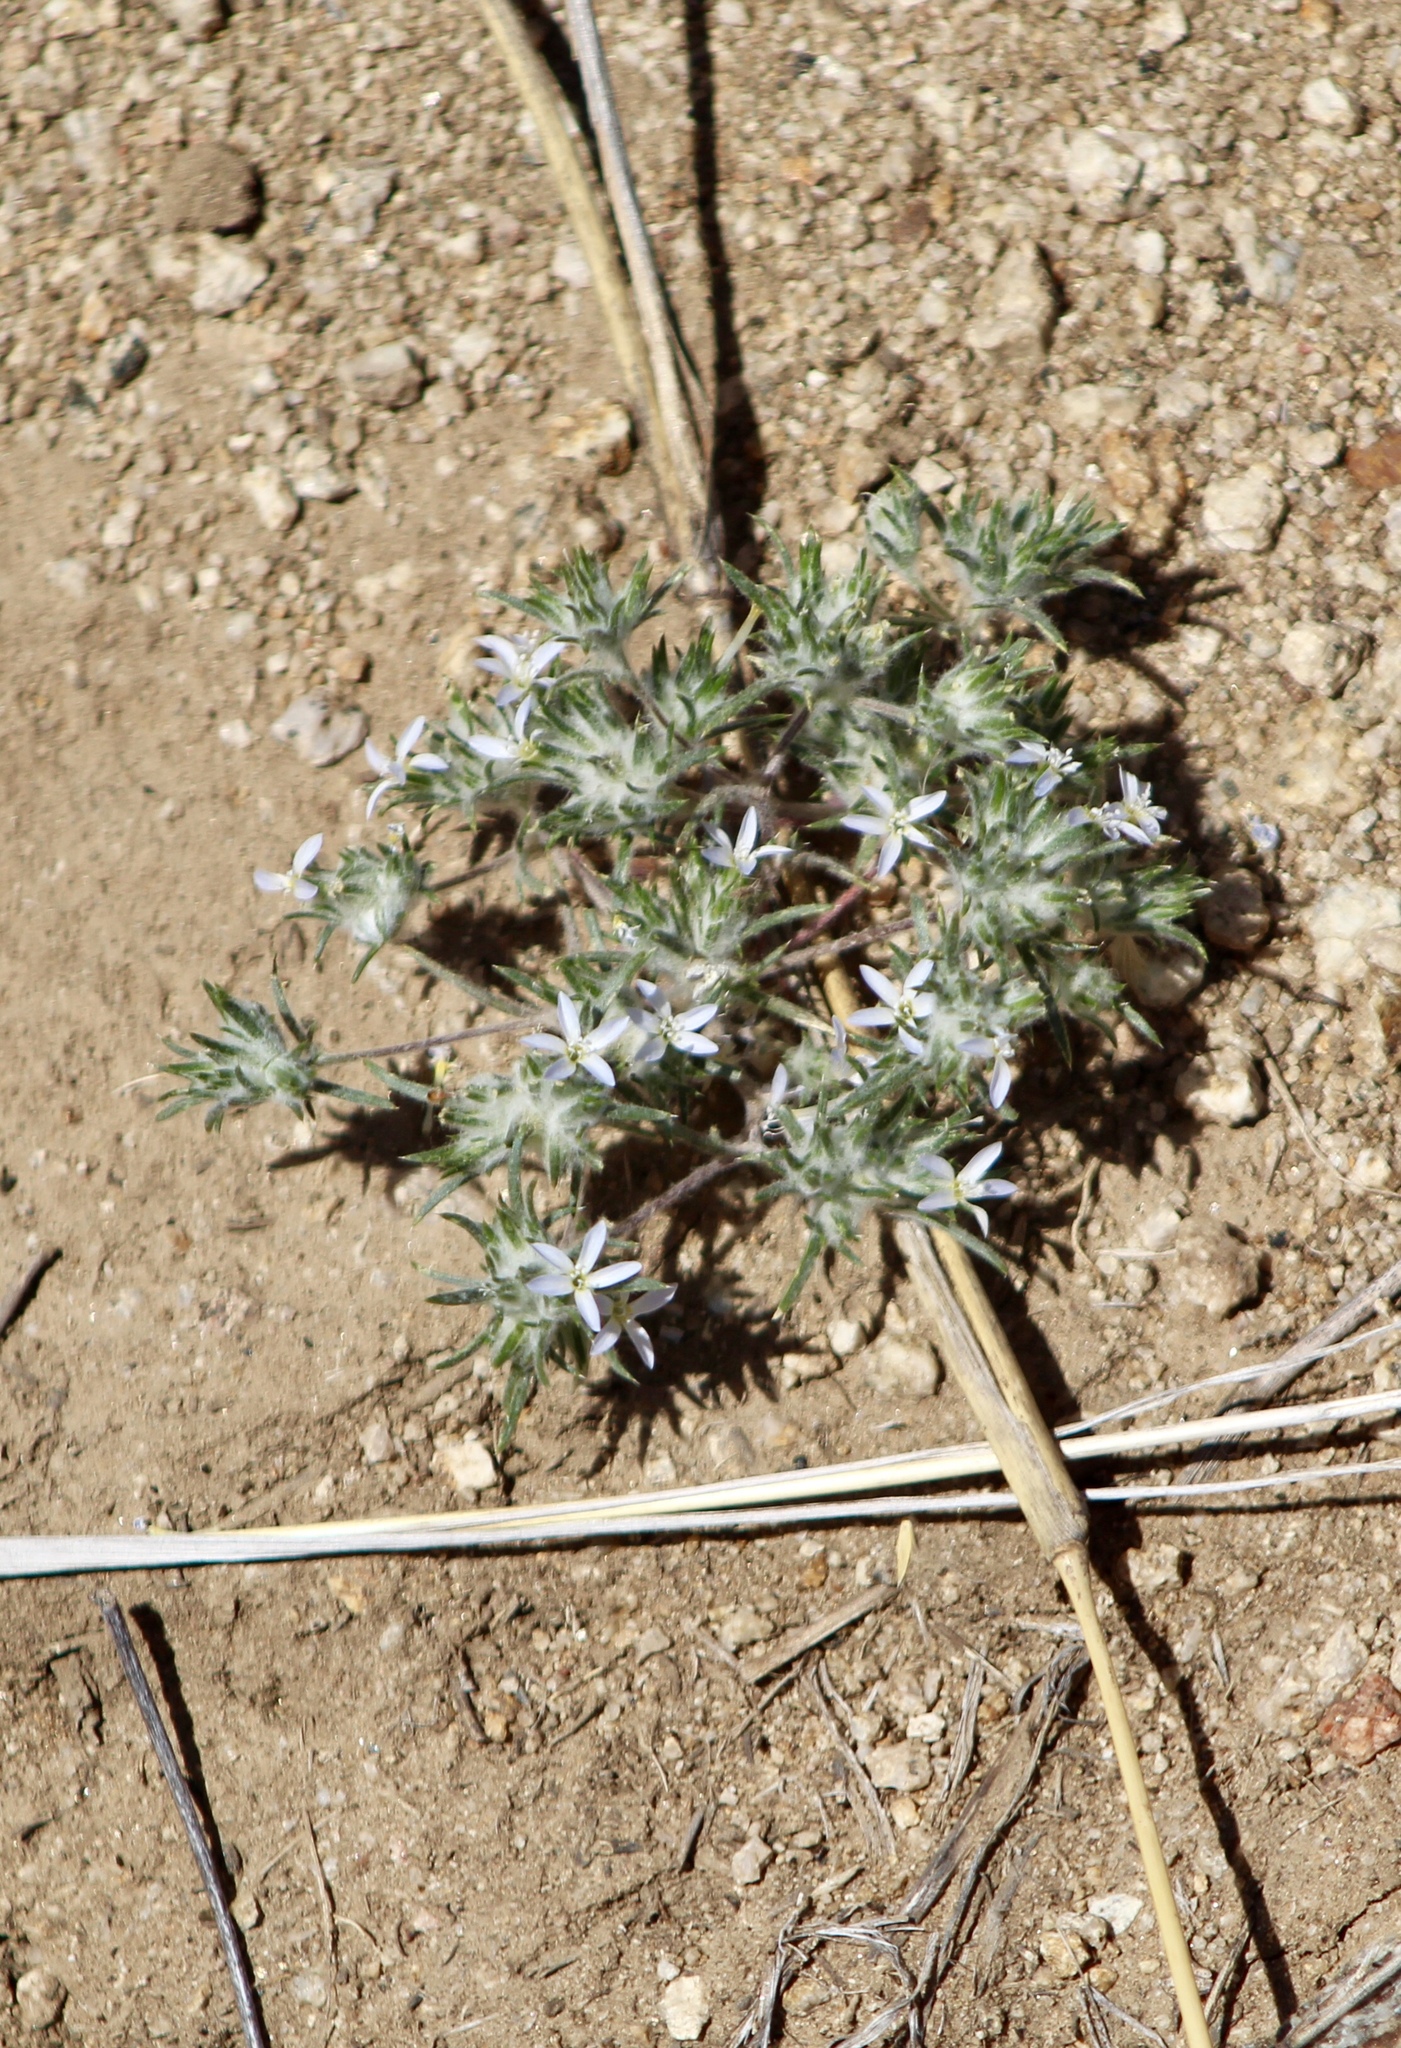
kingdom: Plantae
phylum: Tracheophyta
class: Magnoliopsida
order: Ericales
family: Polemoniaceae
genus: Eriastrum
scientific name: Eriastrum diffusum
